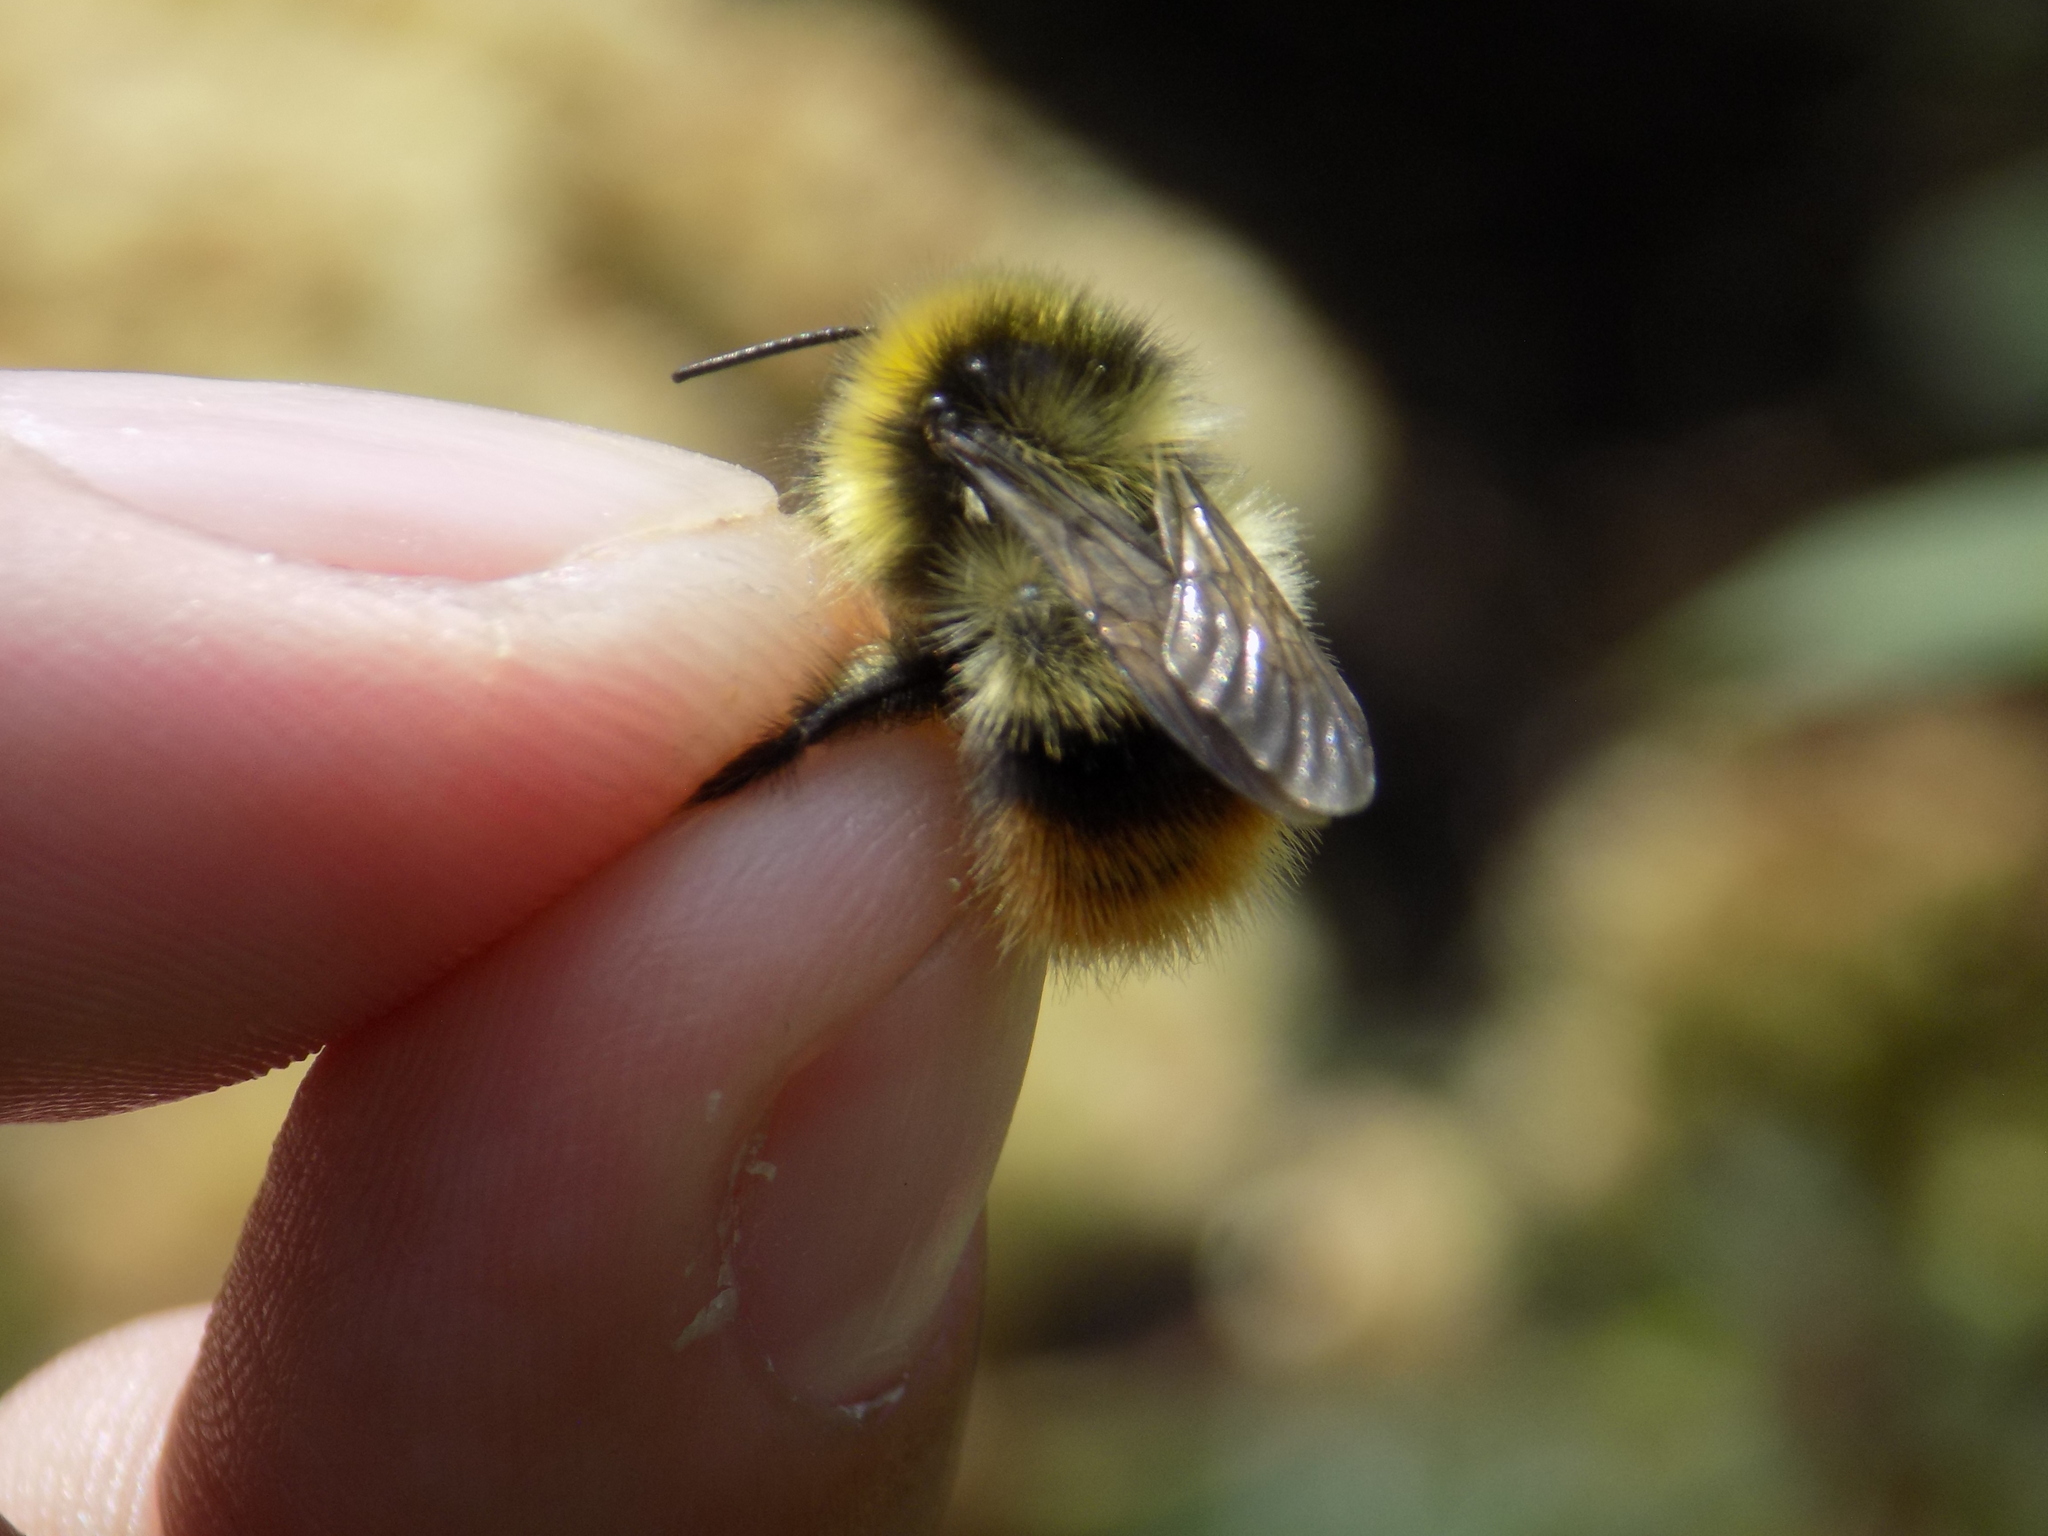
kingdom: Animalia
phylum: Arthropoda
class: Insecta
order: Hymenoptera
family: Apidae
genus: Bombus
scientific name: Bombus sichelii
